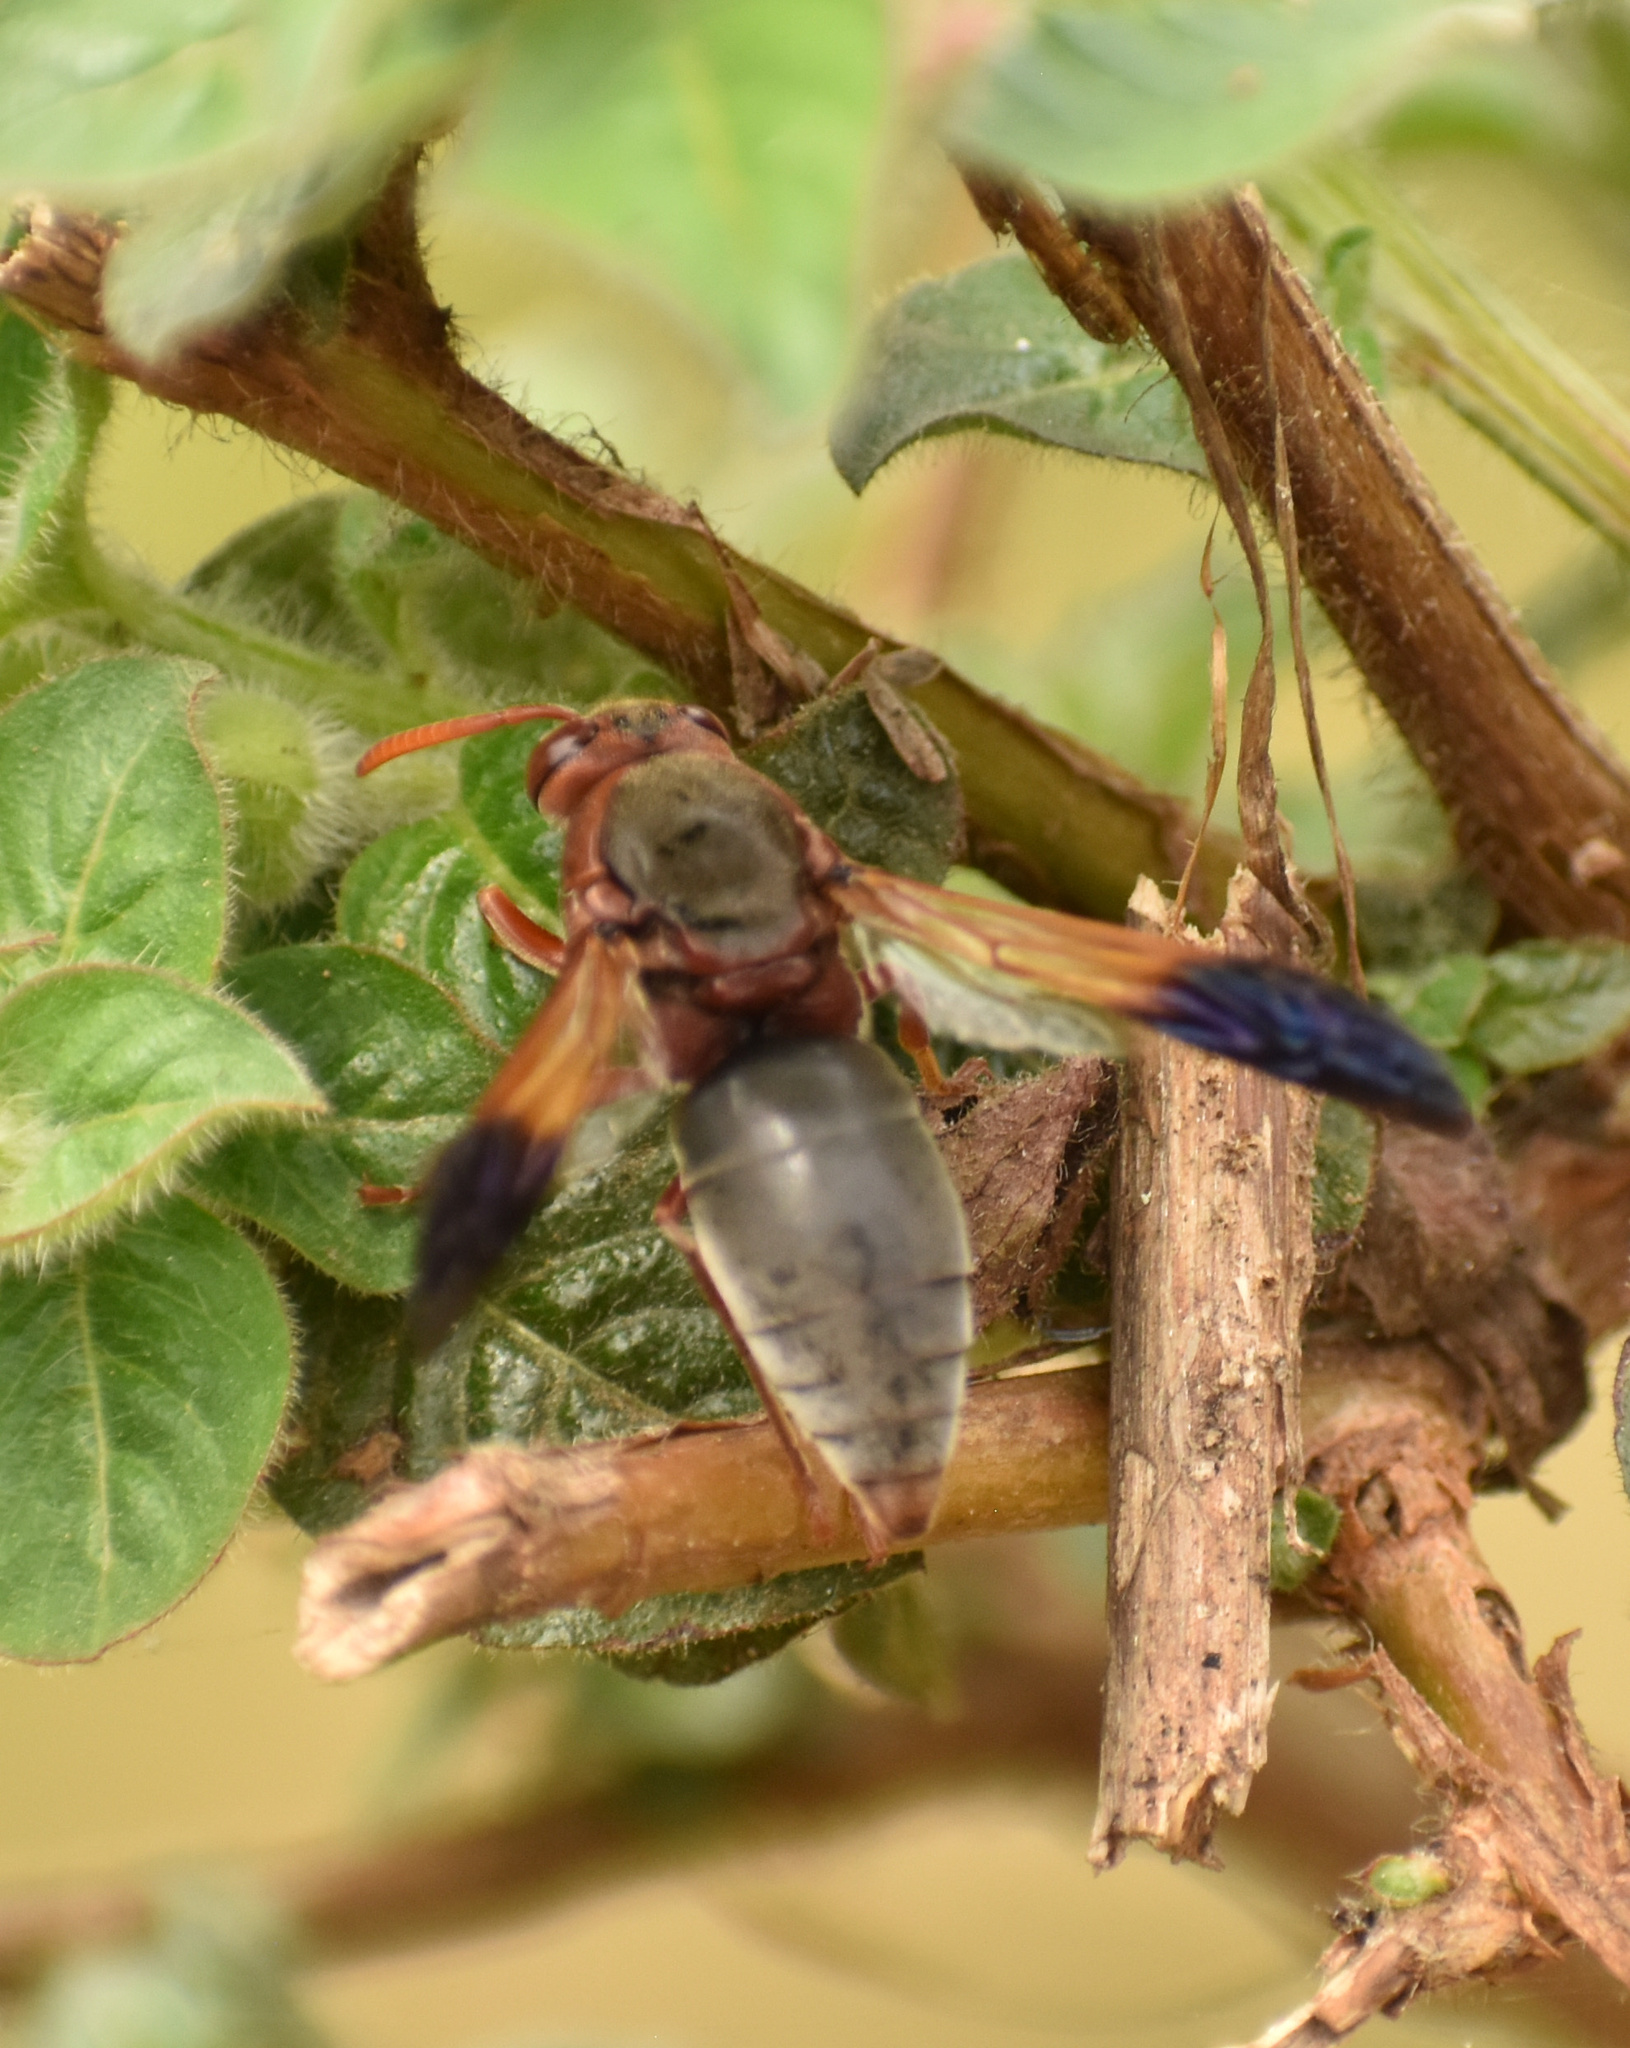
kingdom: Animalia
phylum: Arthropoda
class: Insecta
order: Hymenoptera
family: Eumenidae
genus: Rhynchium
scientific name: Rhynchium
